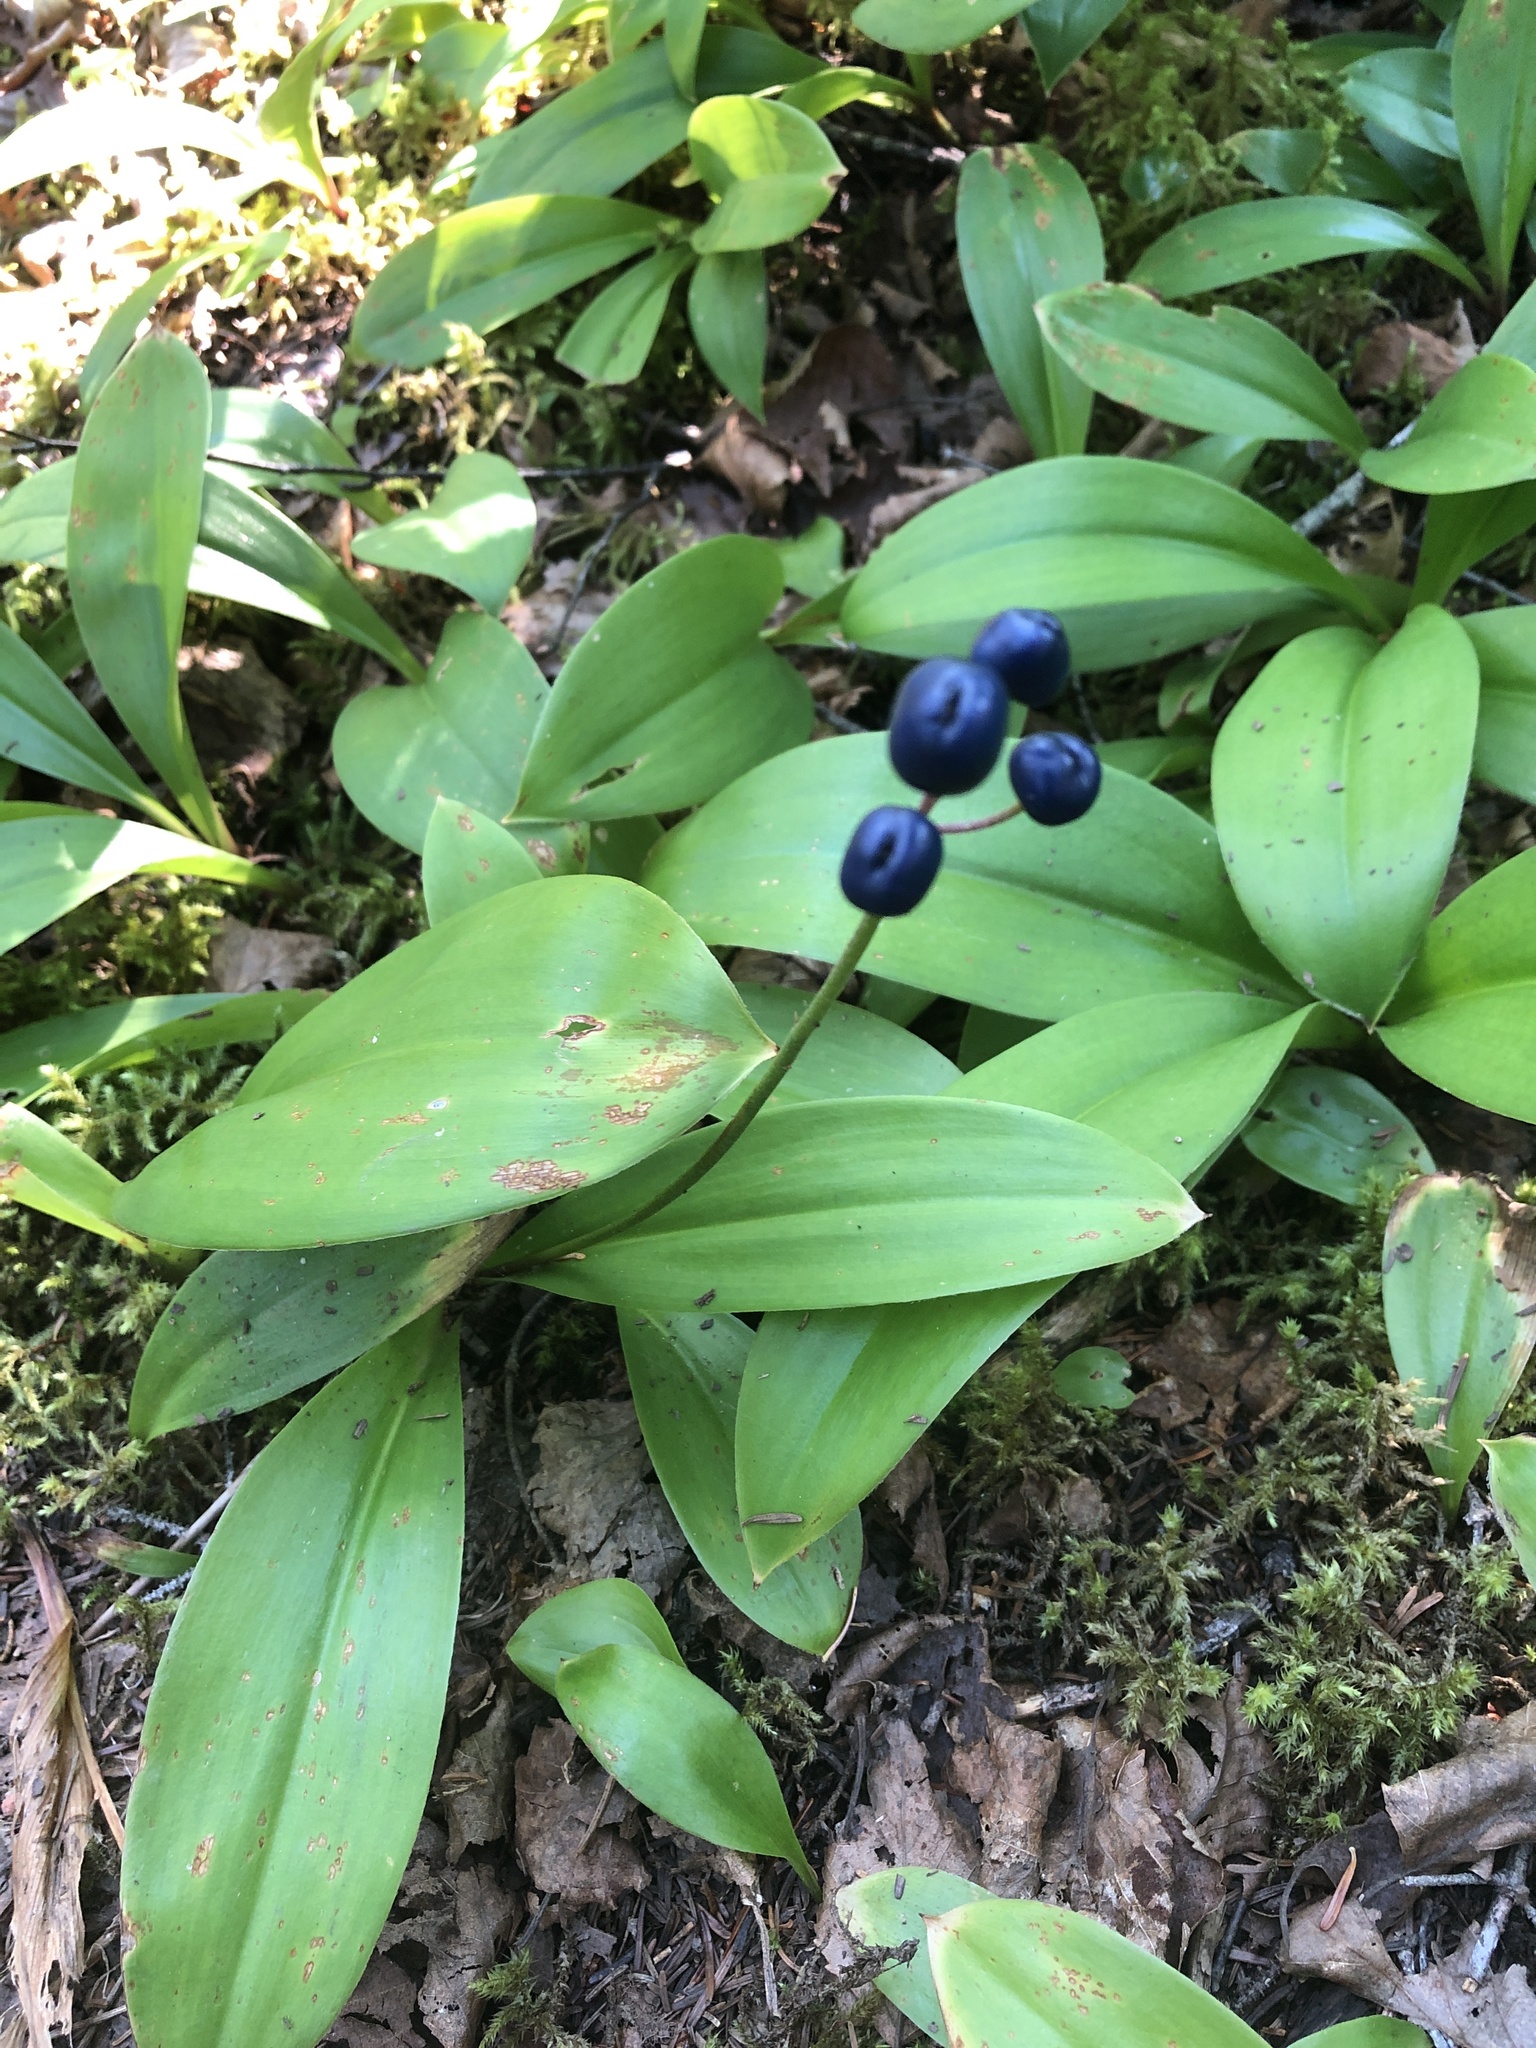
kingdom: Plantae
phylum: Tracheophyta
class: Liliopsida
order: Liliales
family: Liliaceae
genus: Clintonia
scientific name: Clintonia borealis
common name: Yellow clintonia
